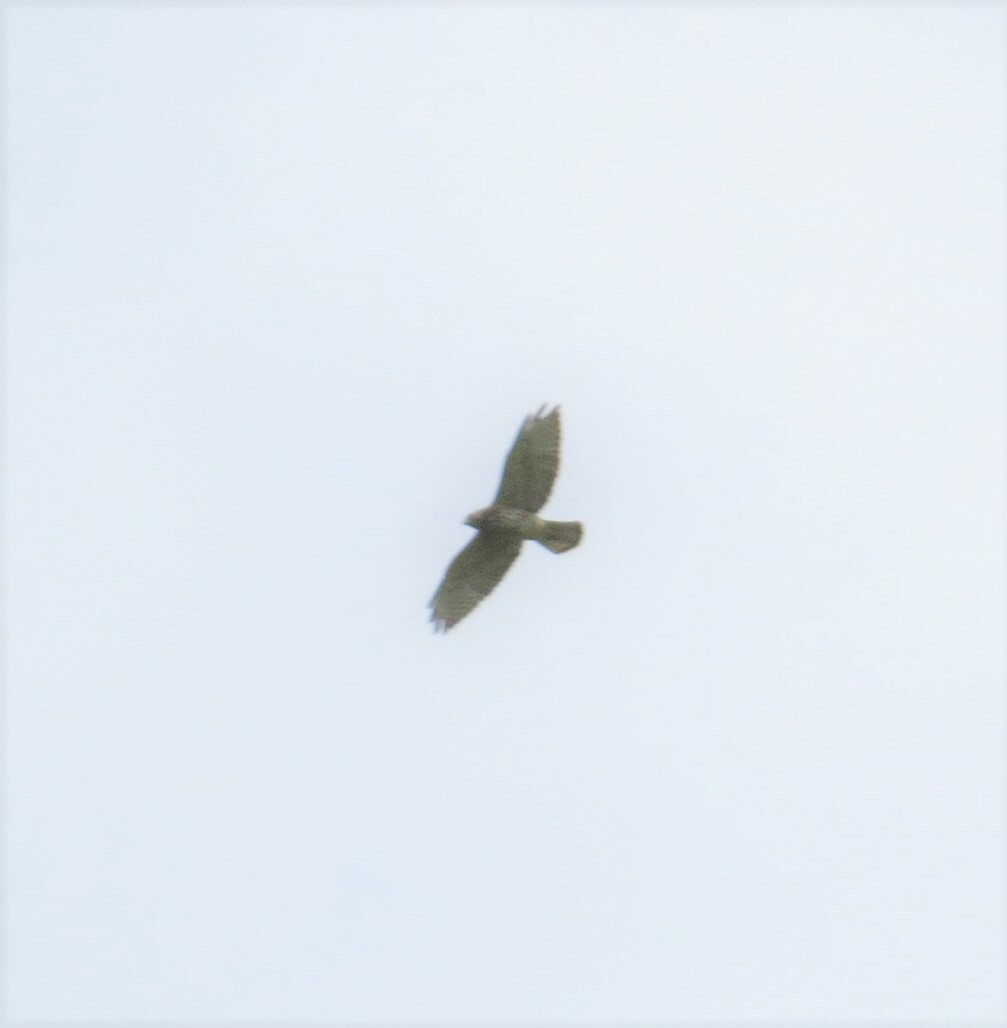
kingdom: Animalia
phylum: Chordata
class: Aves
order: Accipitriformes
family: Accipitridae
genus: Buteo
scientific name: Buteo platypterus
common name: Broad-winged hawk
